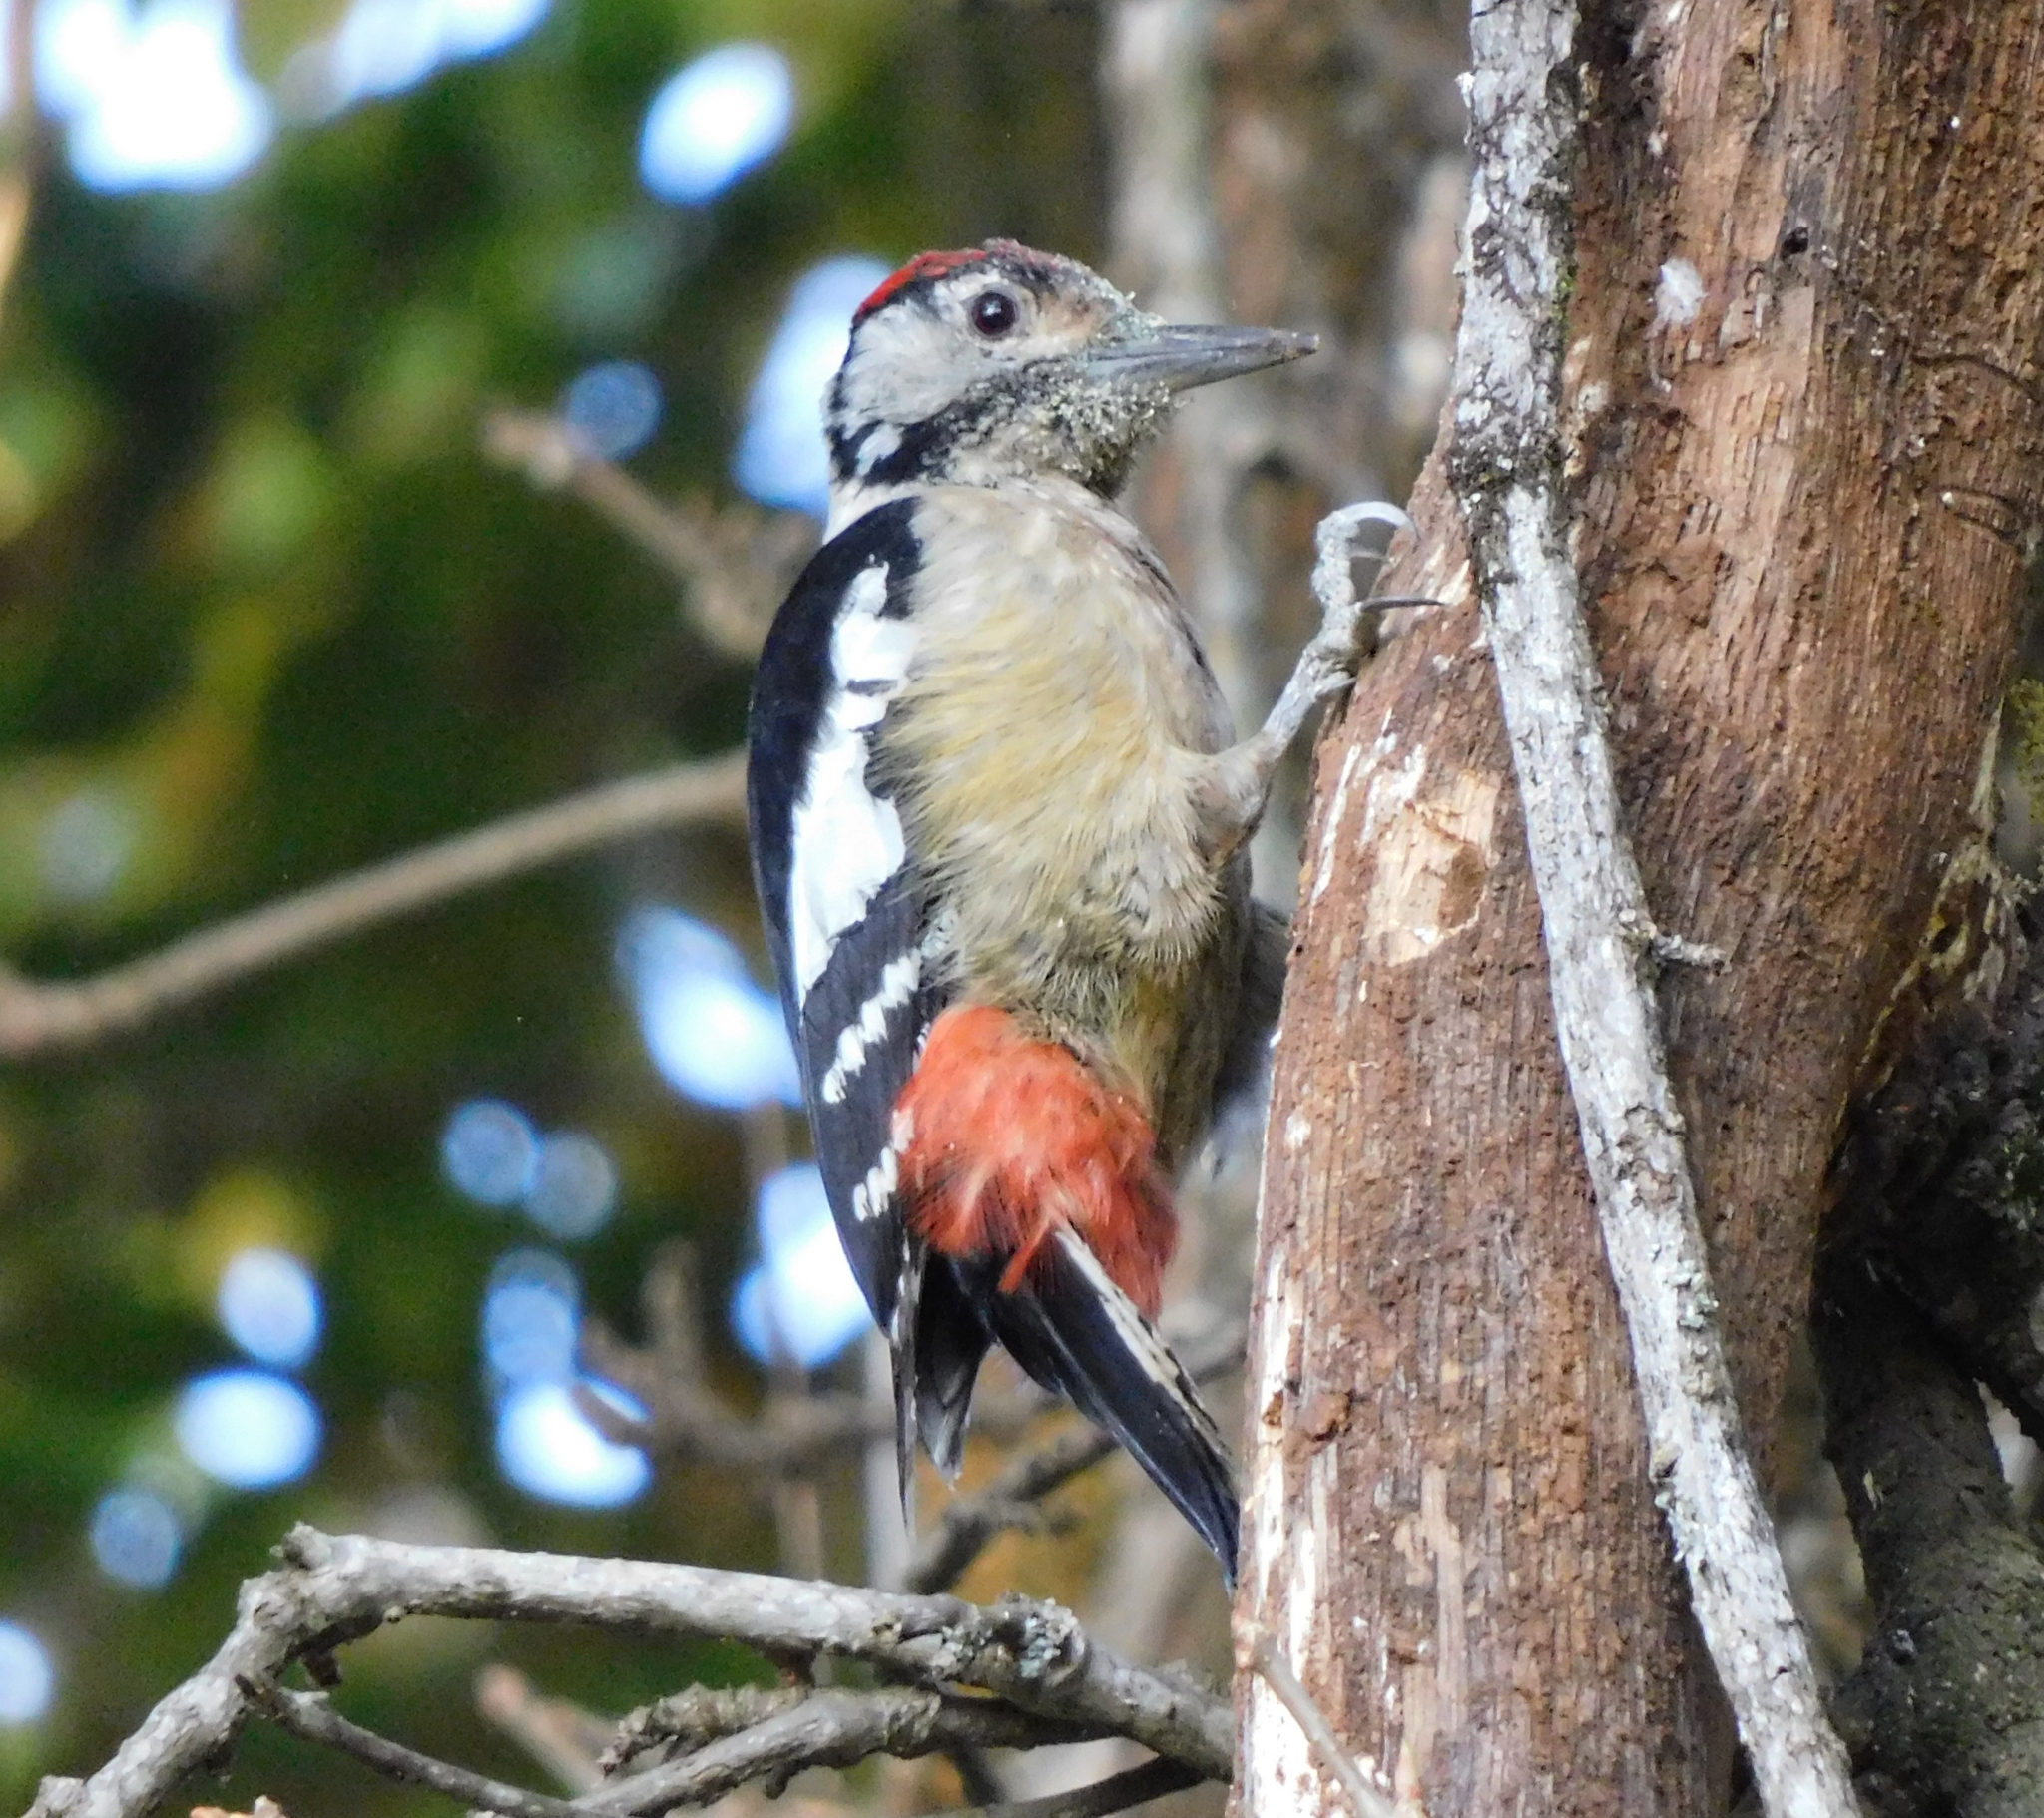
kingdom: Animalia
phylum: Chordata
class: Aves
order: Piciformes
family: Picidae
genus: Dendrocopos
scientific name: Dendrocopos macei
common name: Fulvous-breasted woodpecker
